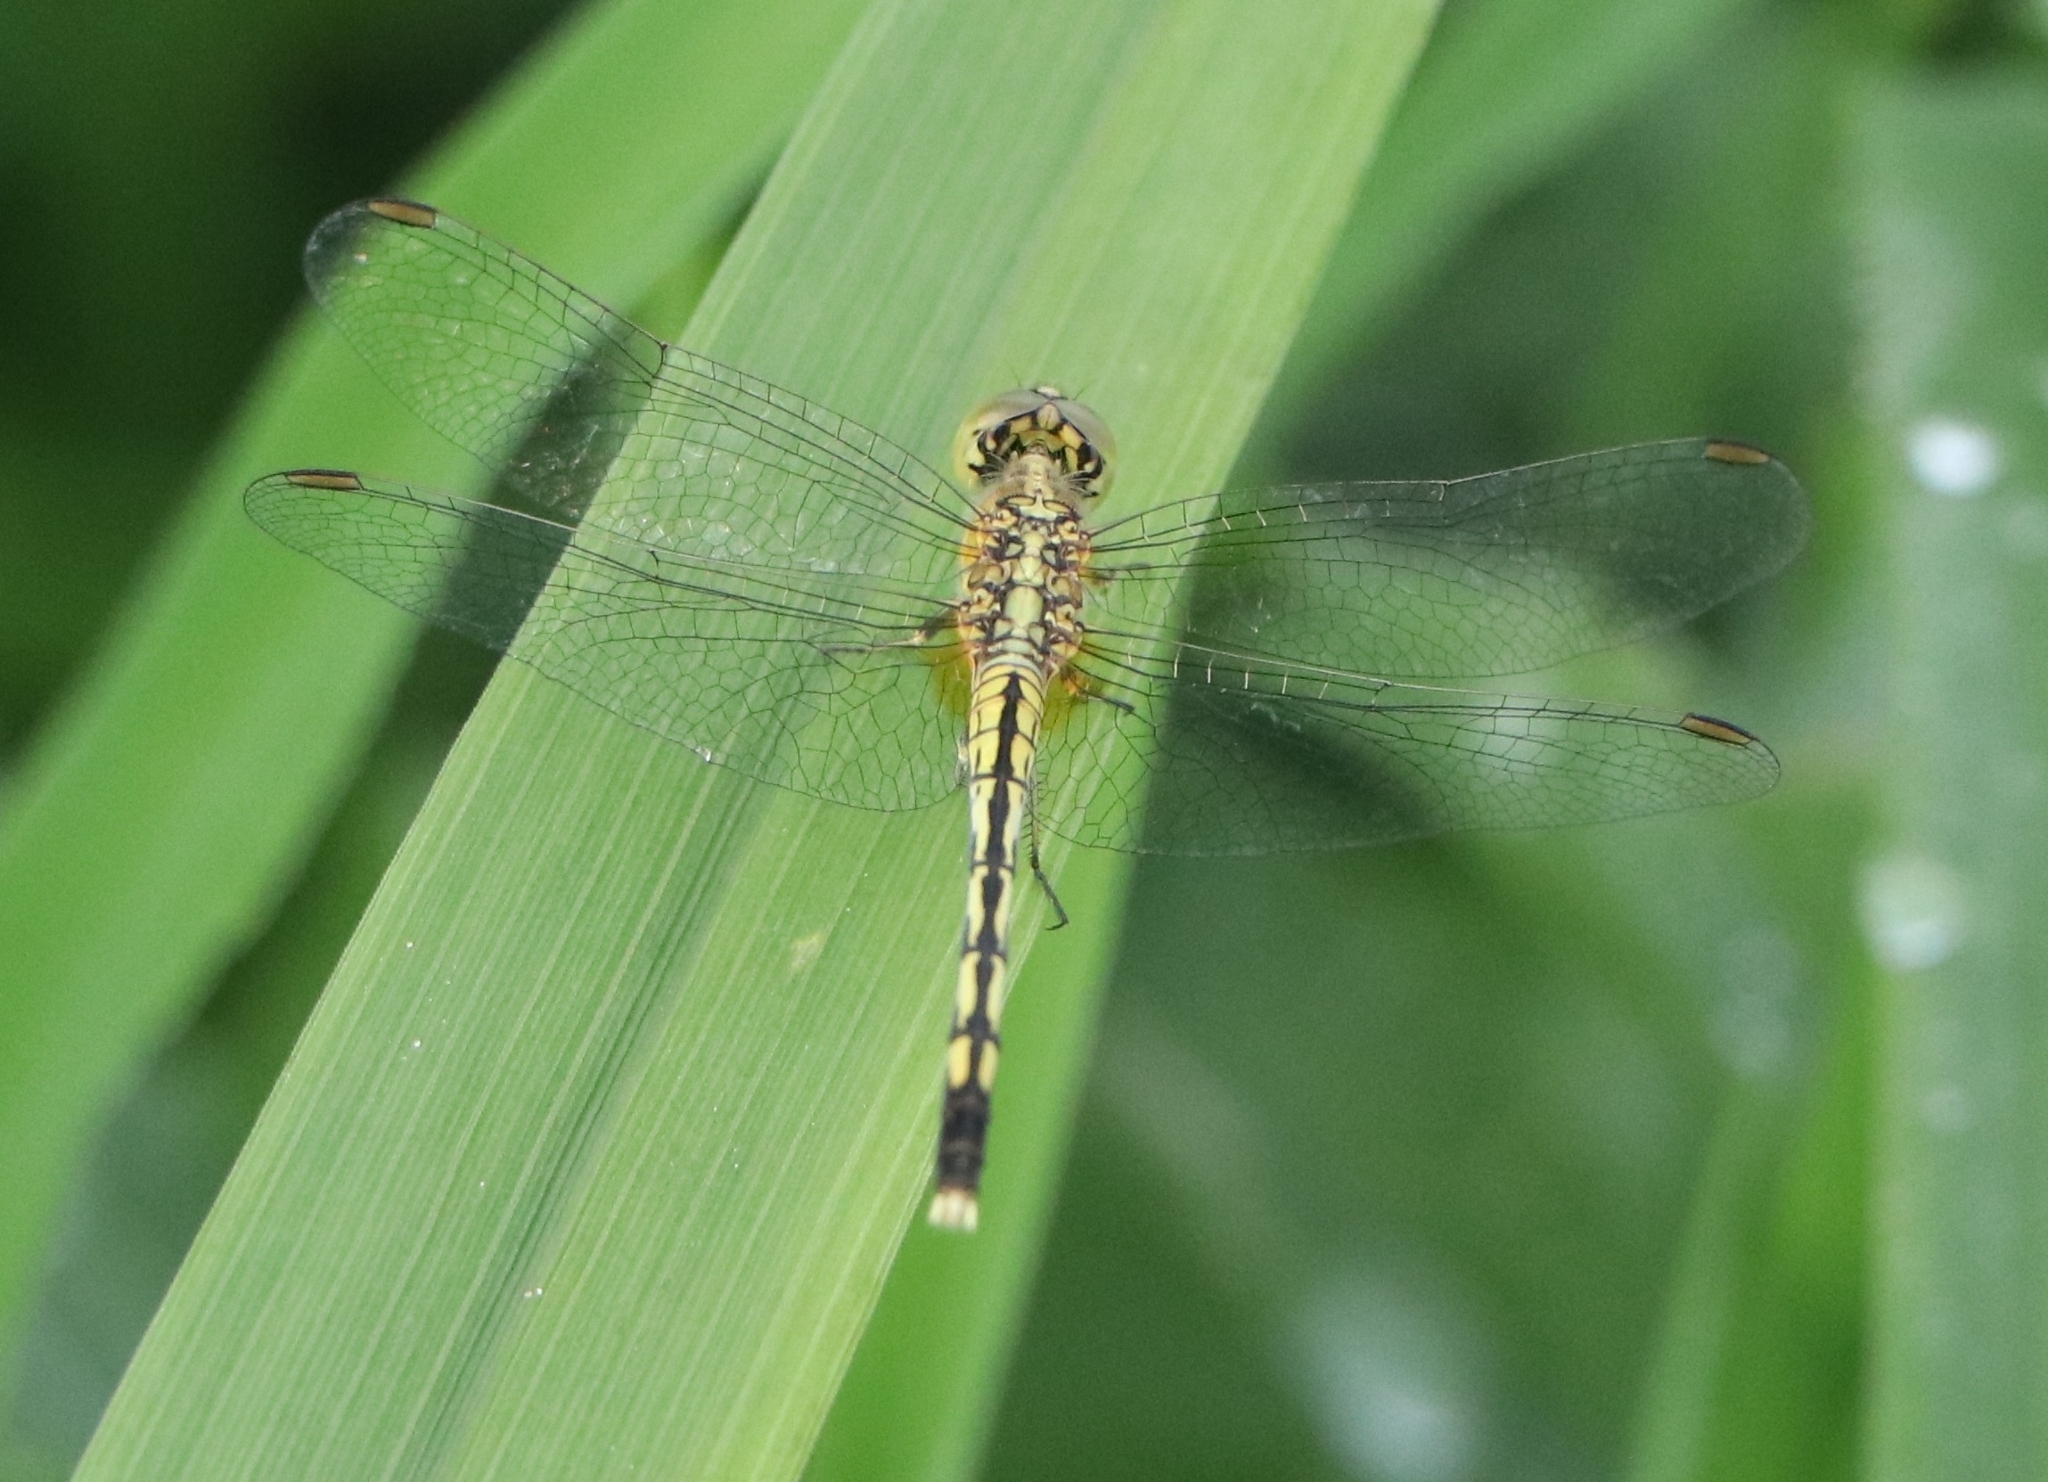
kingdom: Animalia
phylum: Arthropoda
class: Insecta
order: Odonata
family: Libellulidae
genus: Diplacodes
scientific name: Diplacodes trivialis
